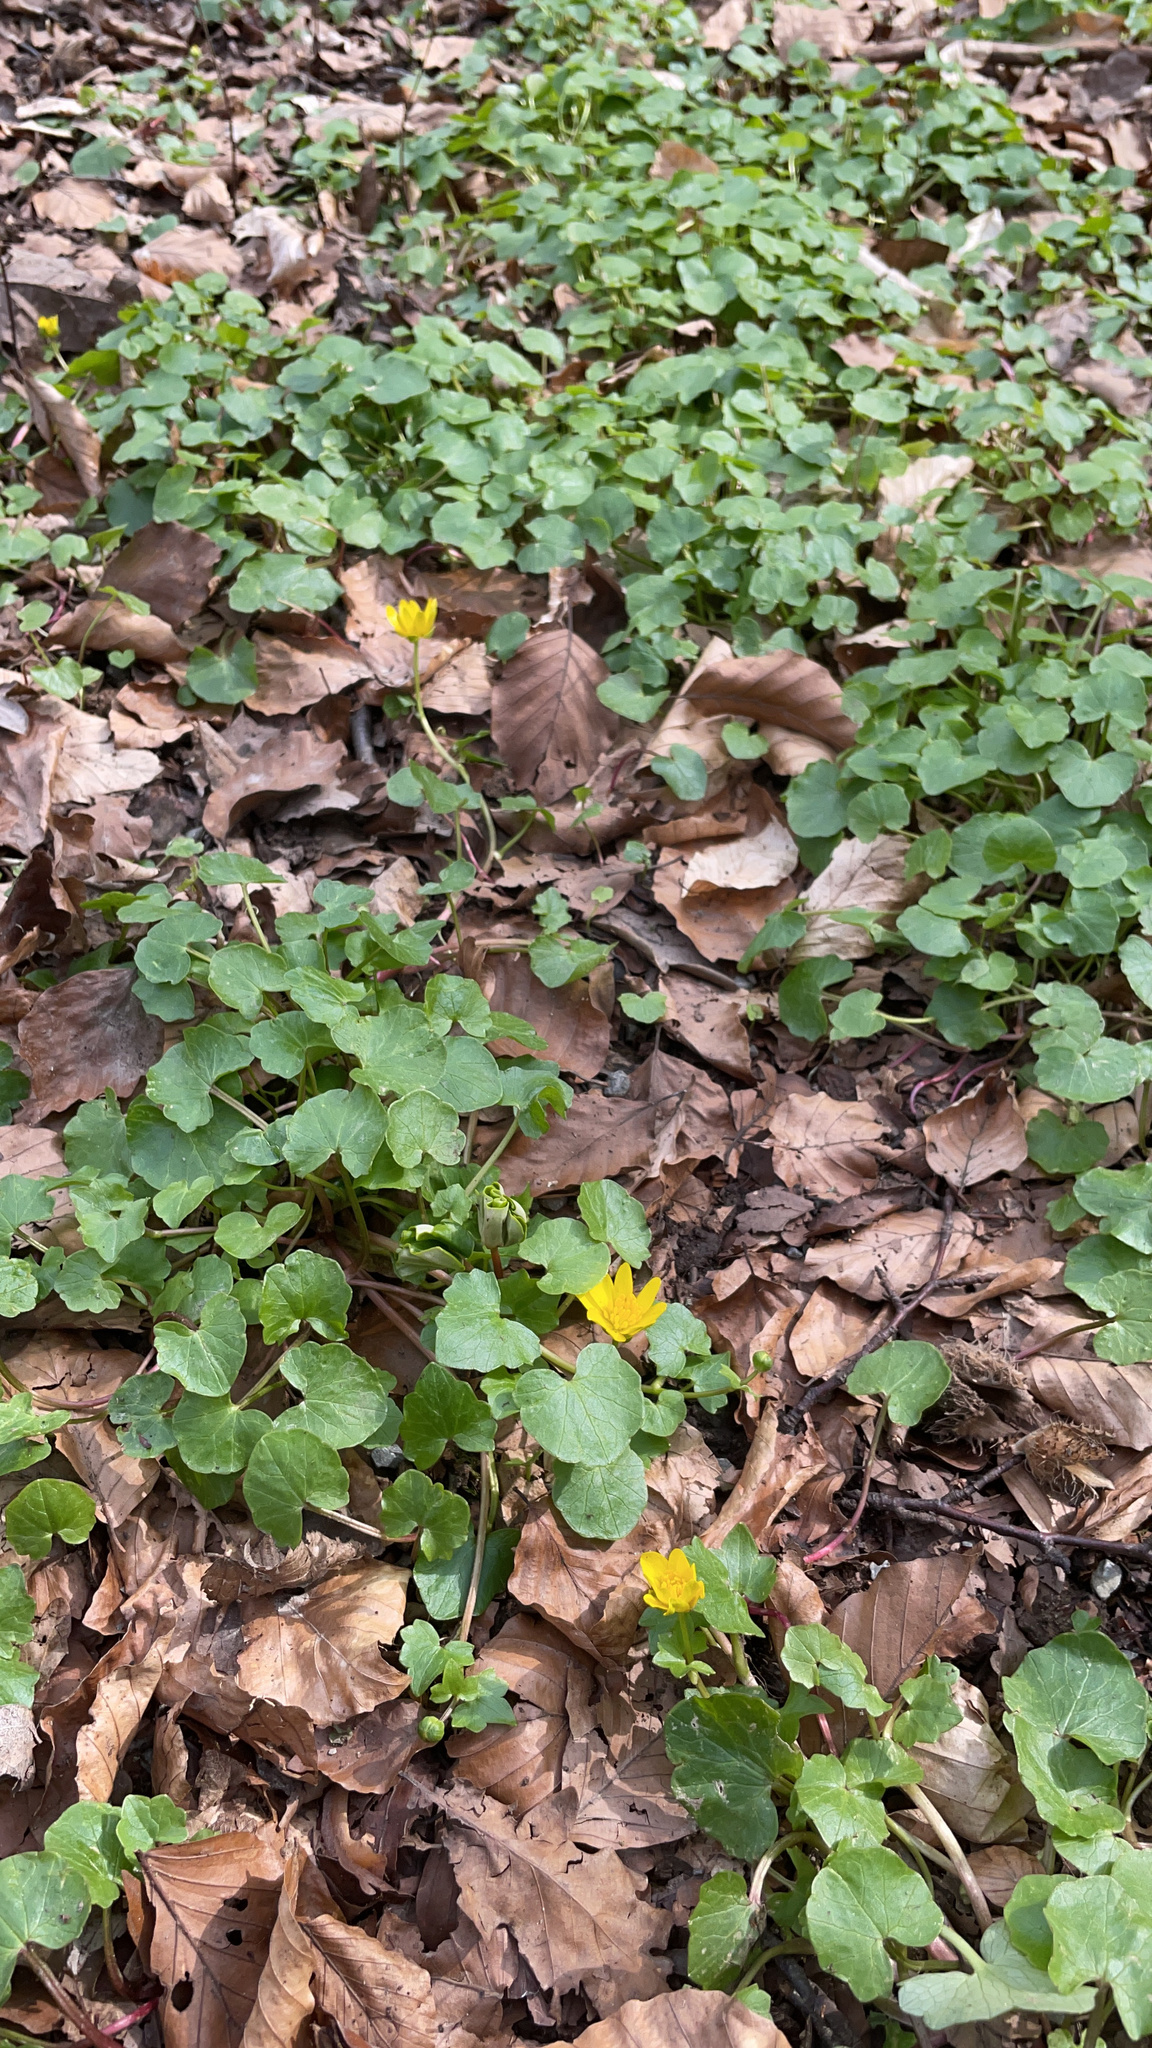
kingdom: Plantae
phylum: Tracheophyta
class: Magnoliopsida
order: Ranunculales
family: Ranunculaceae
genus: Ficaria
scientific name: Ficaria verna
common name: Lesser celandine
